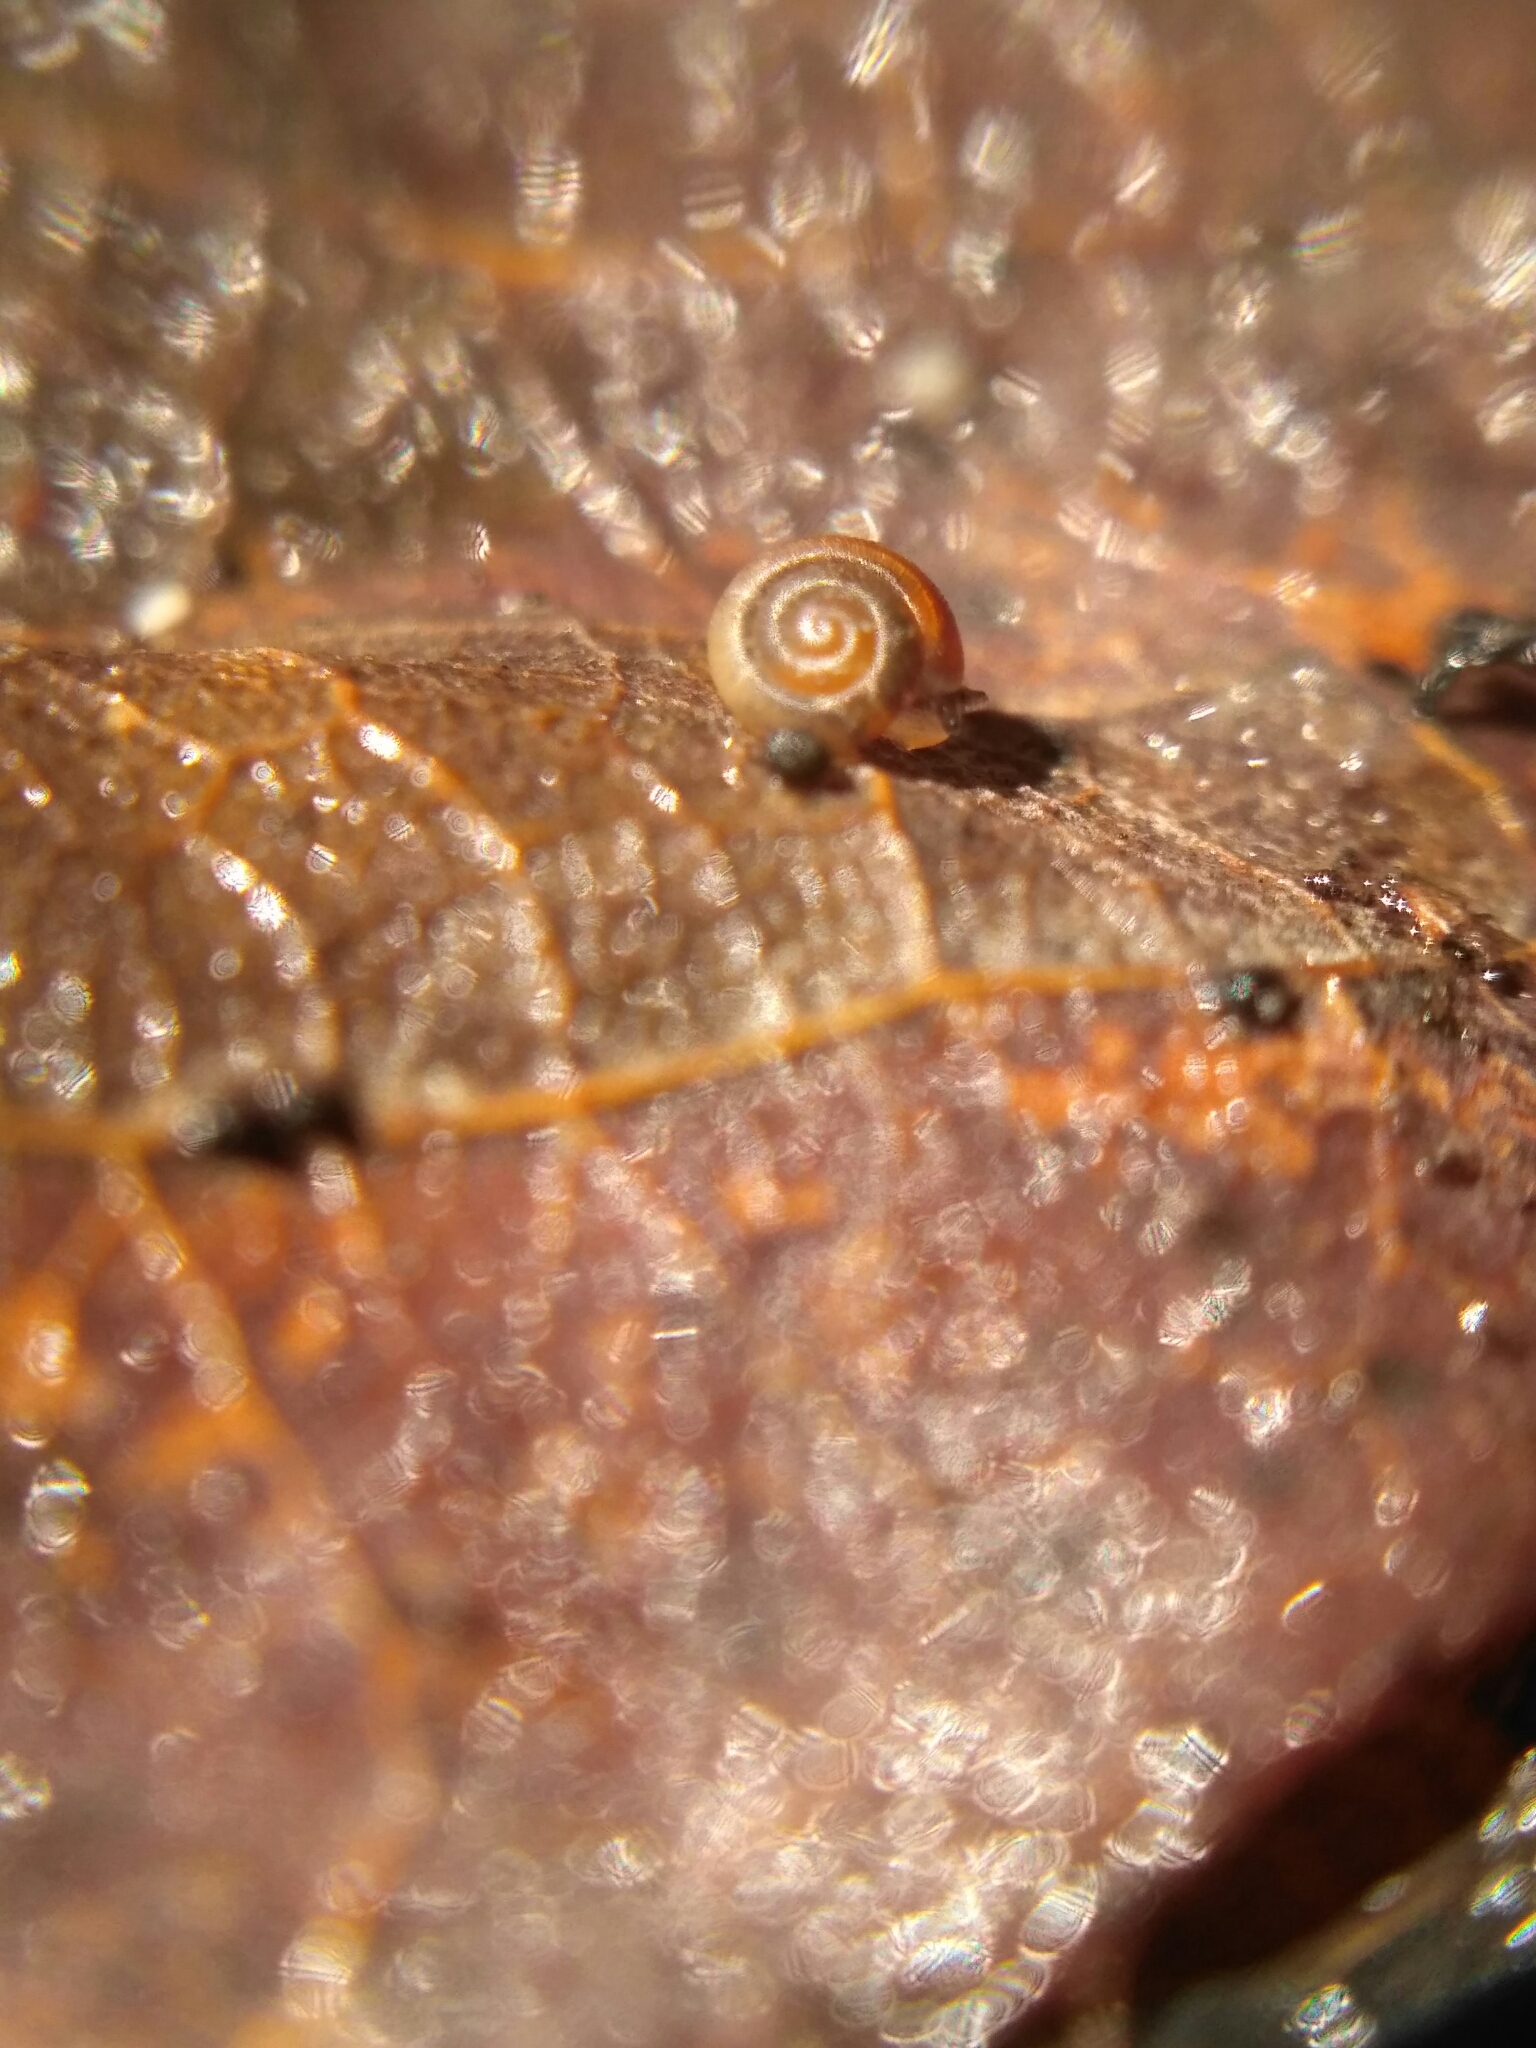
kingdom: Animalia
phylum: Mollusca
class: Gastropoda
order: Stylommatophora
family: Punctidae
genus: Punctum
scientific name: Punctum pygmaeum
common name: Dwarf snail
